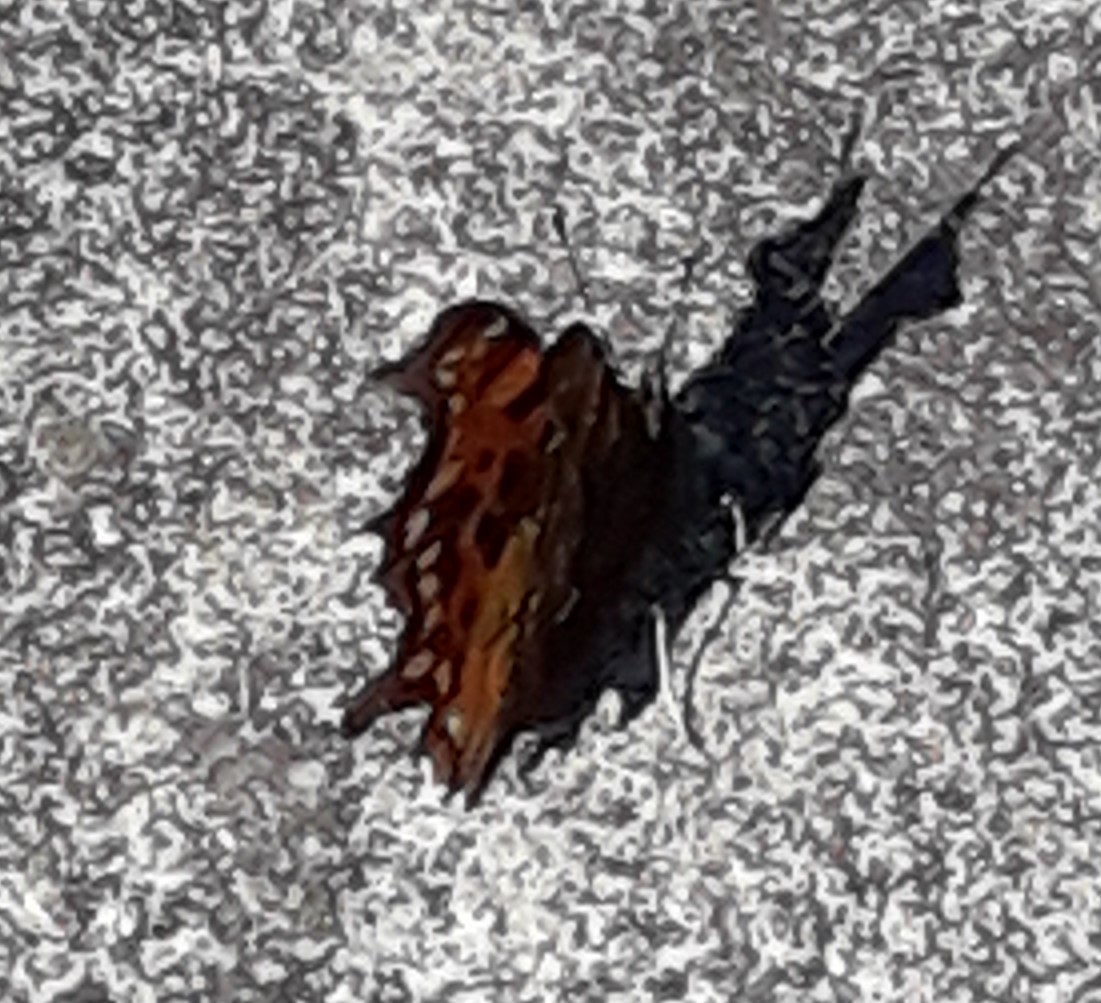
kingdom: Animalia
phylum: Arthropoda
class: Insecta
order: Lepidoptera
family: Nymphalidae
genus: Polygonia
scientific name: Polygonia c-album
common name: Comma
